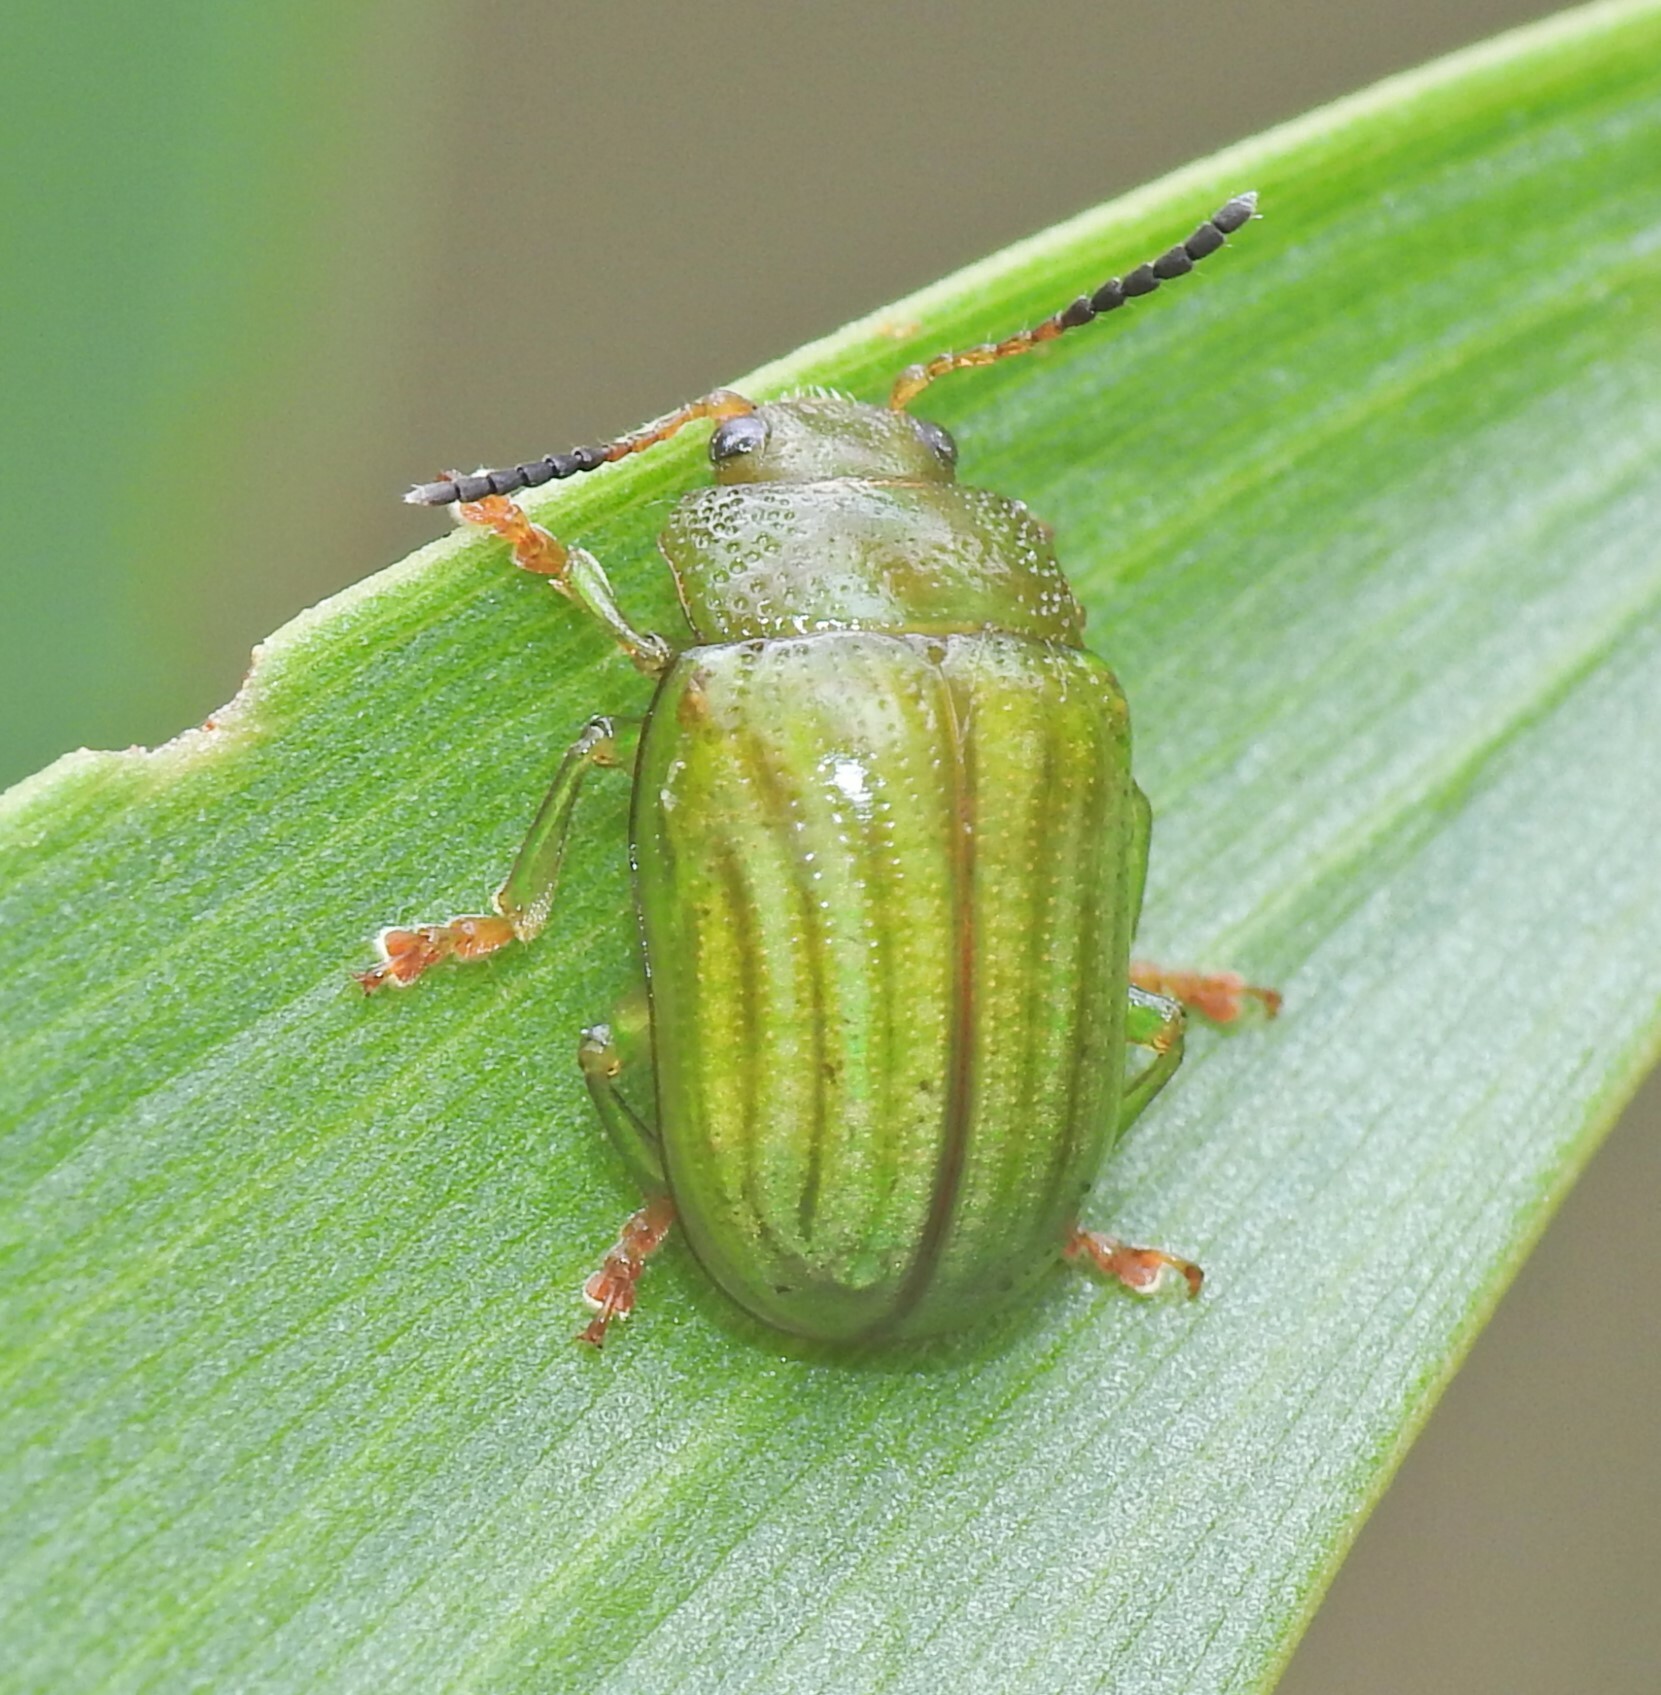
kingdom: Animalia
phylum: Arthropoda
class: Insecta
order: Coleoptera
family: Chrysomelidae
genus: Calomela
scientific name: Calomela
